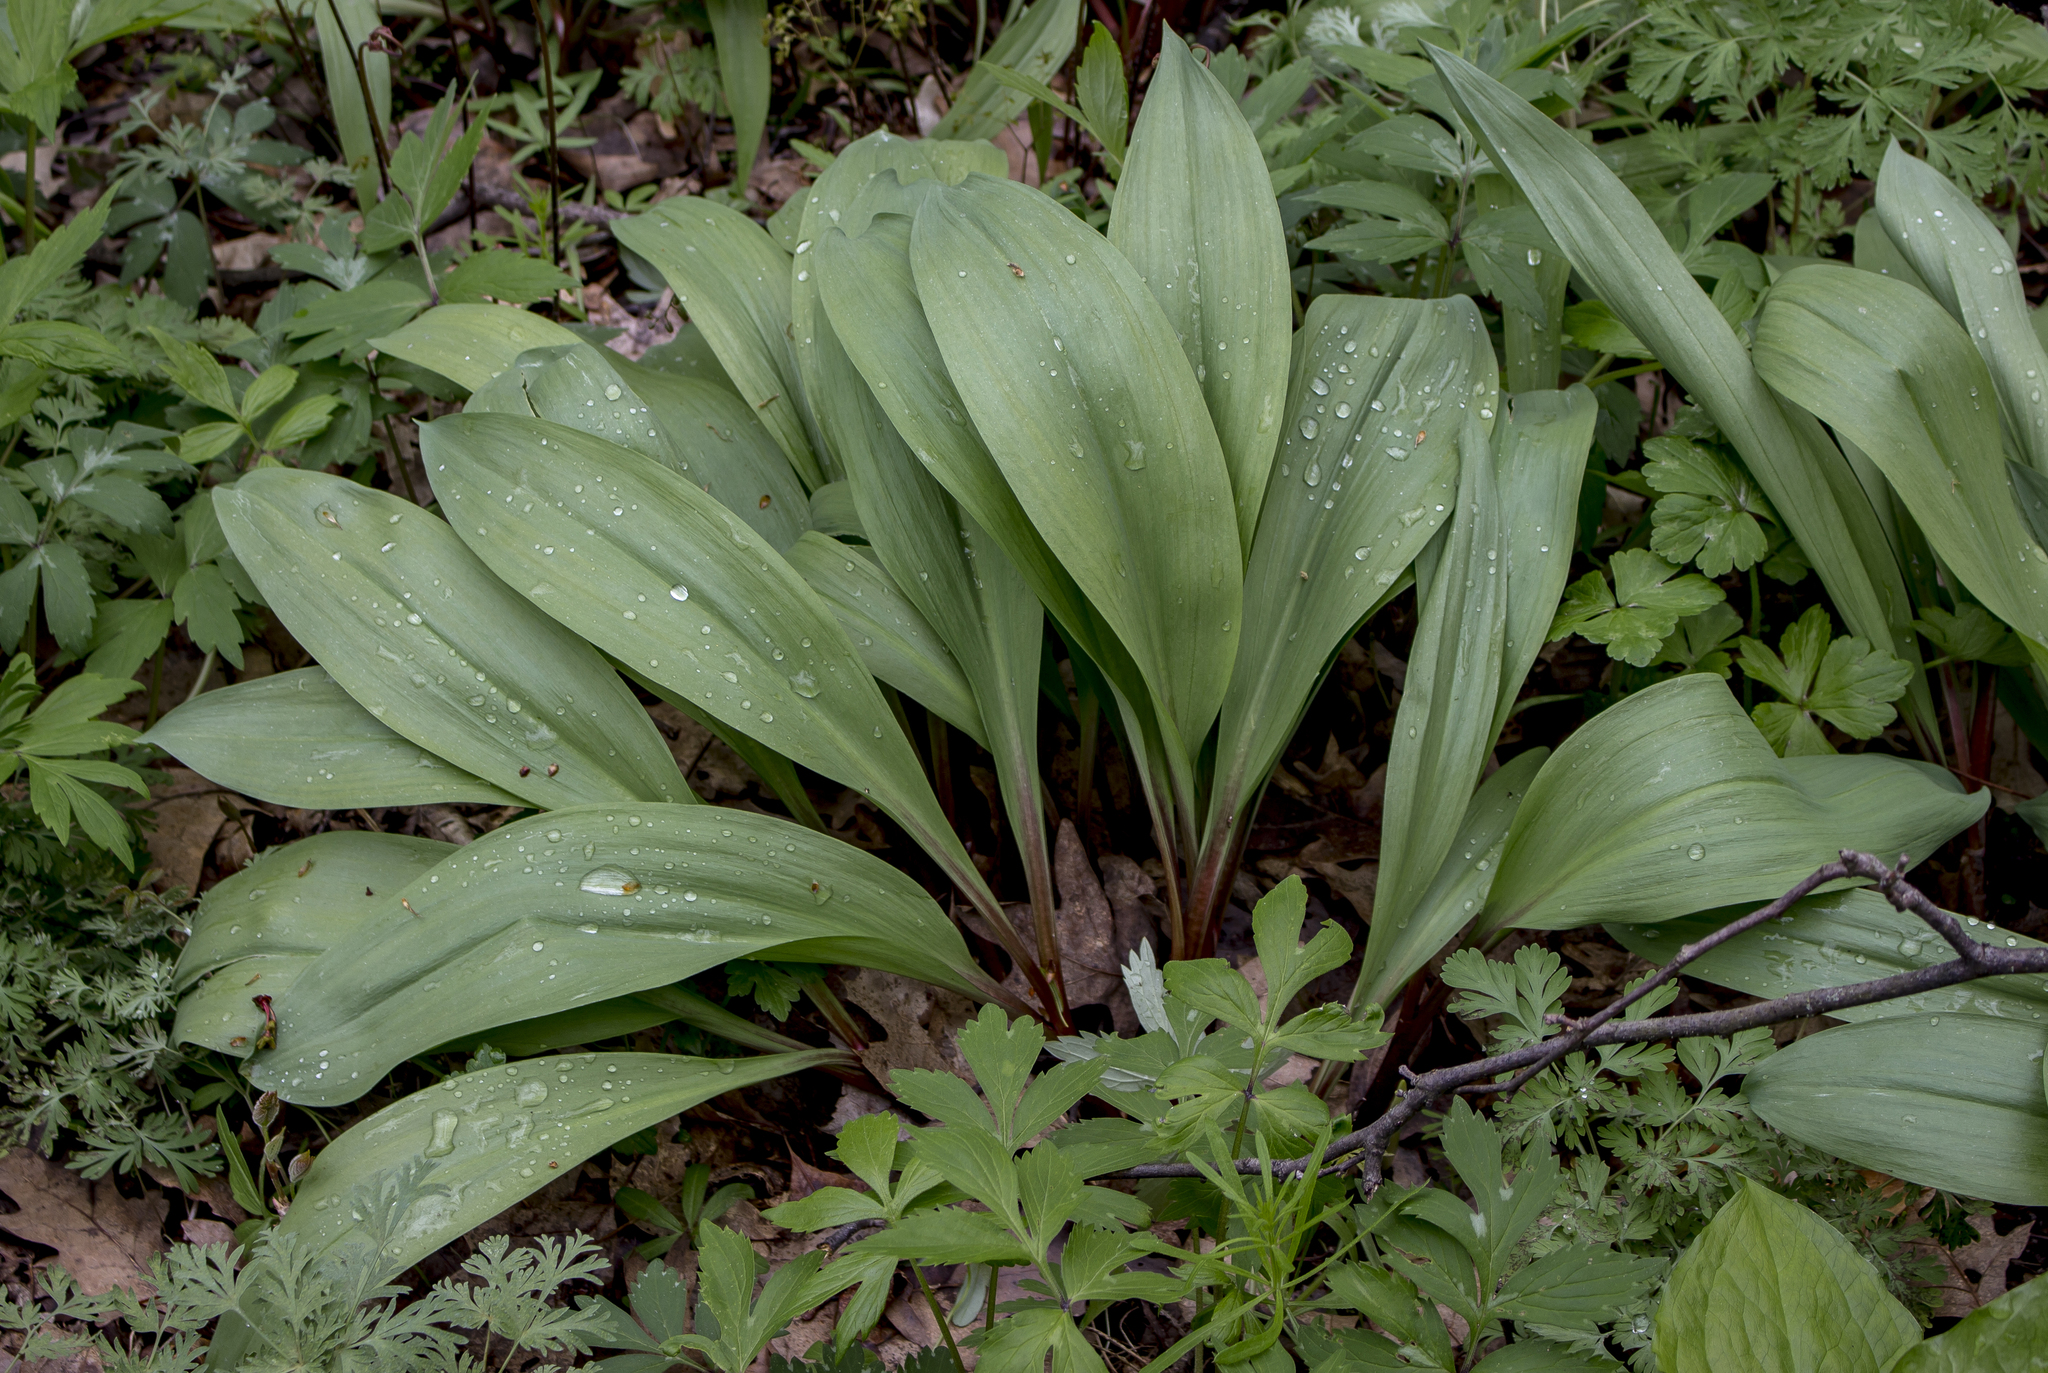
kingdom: Plantae
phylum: Tracheophyta
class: Liliopsida
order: Asparagales
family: Amaryllidaceae
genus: Allium
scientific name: Allium tricoccum
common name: Ramp
